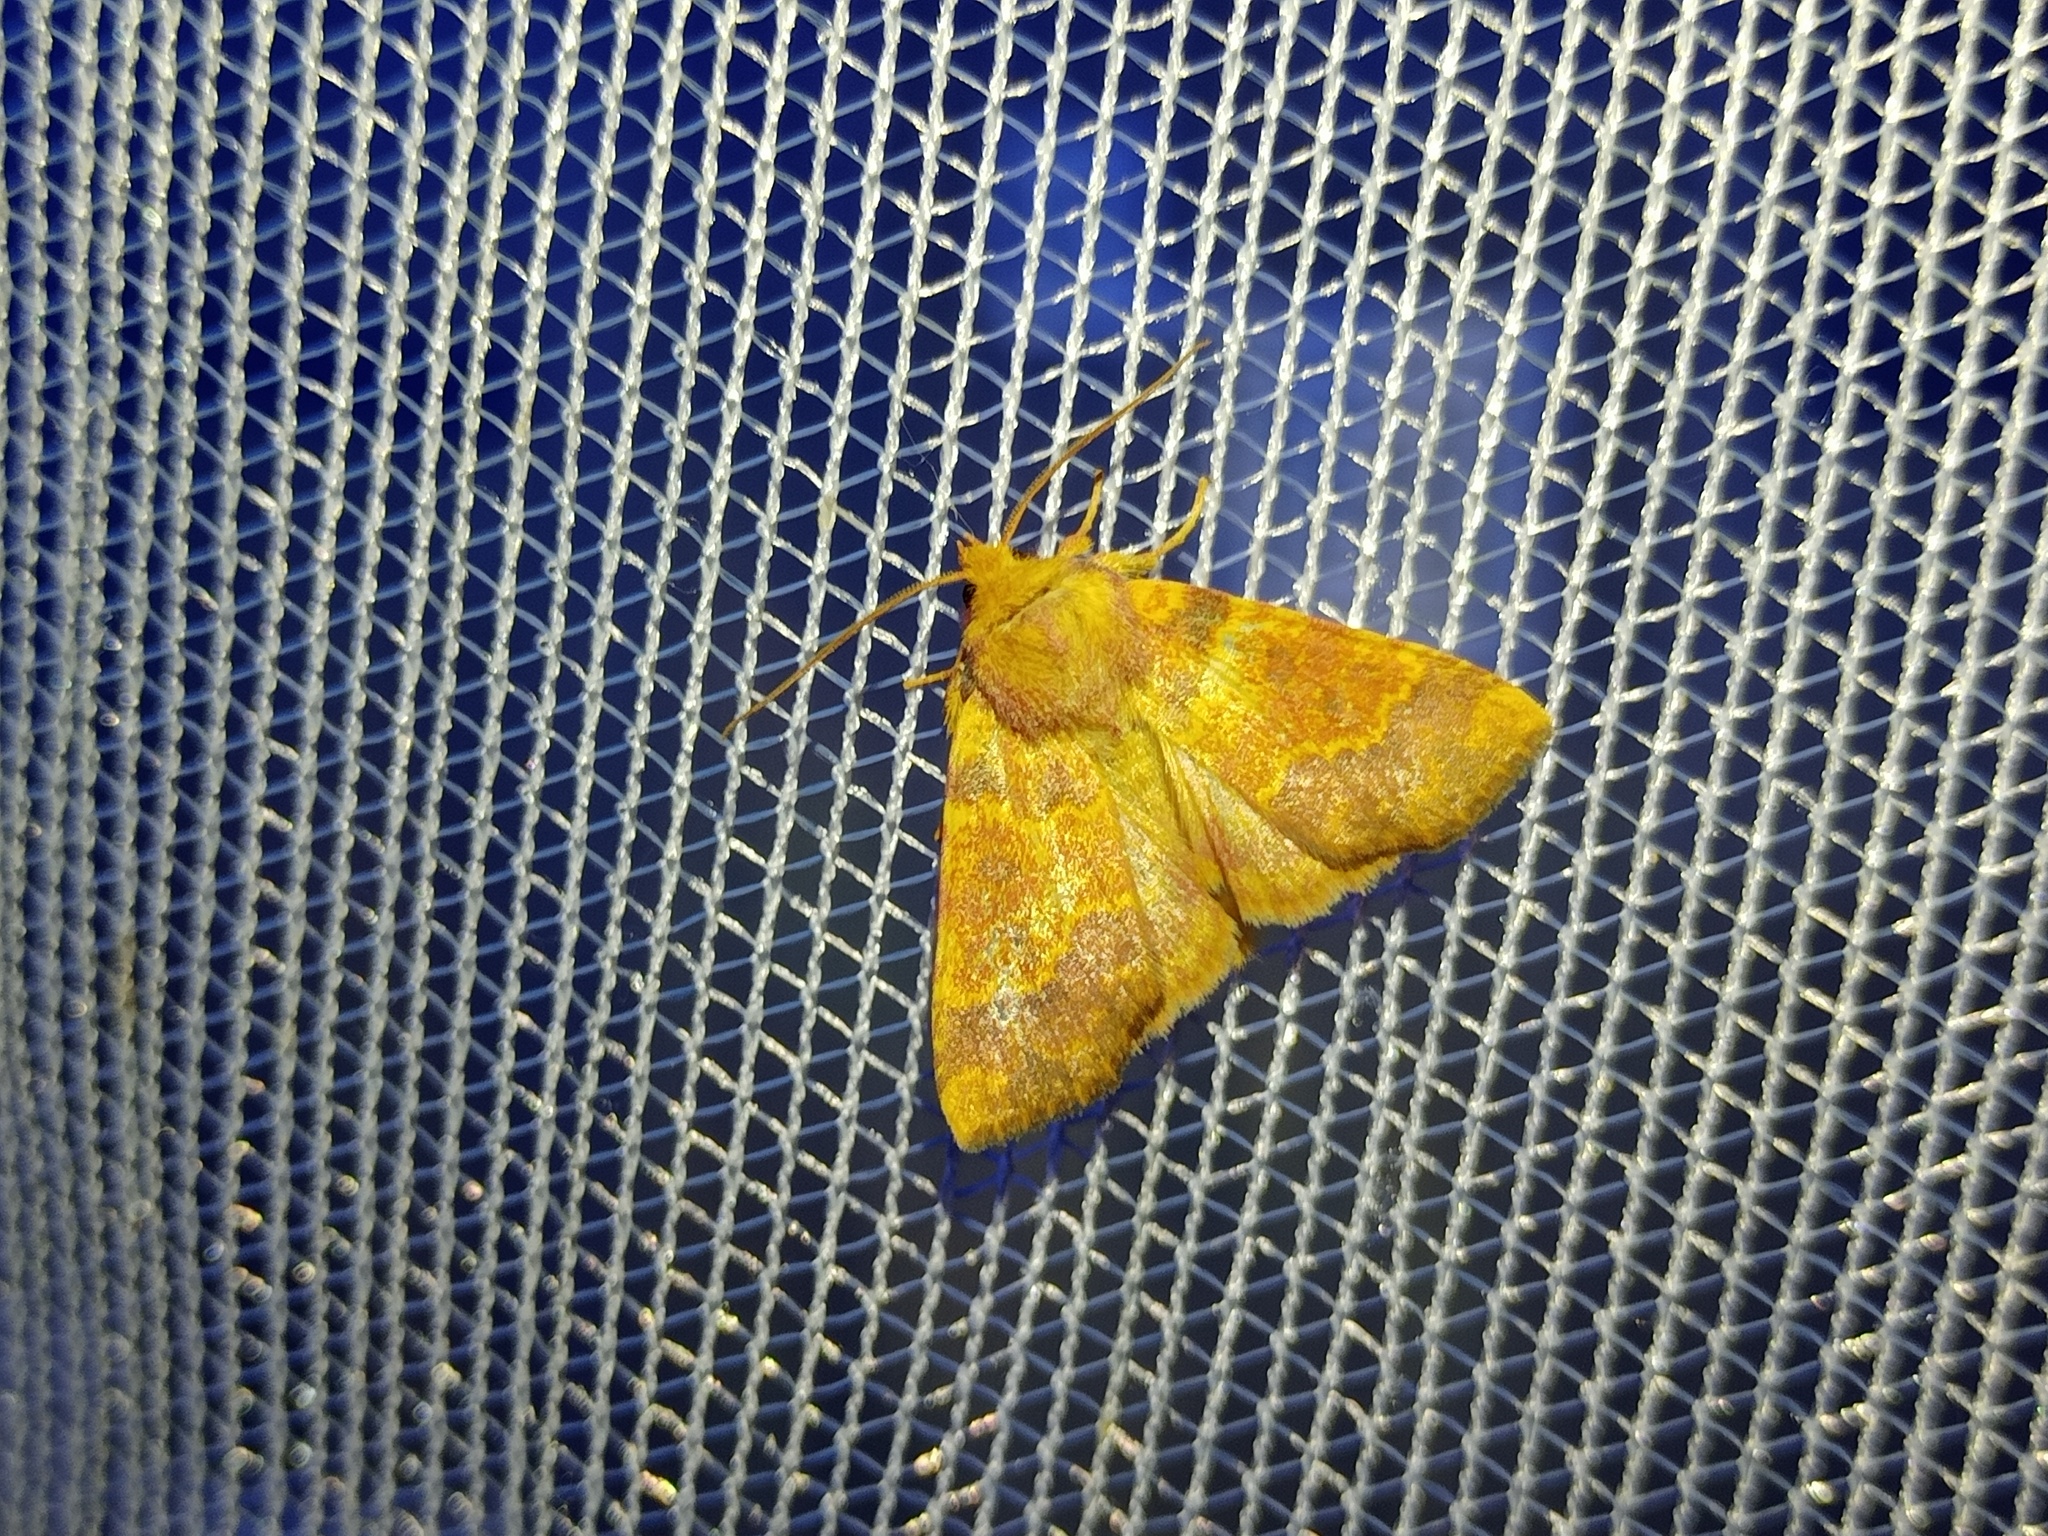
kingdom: Animalia
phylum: Arthropoda
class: Insecta
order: Lepidoptera
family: Noctuidae
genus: Tiliacea
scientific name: Tiliacea aurago
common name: Barred sallow
